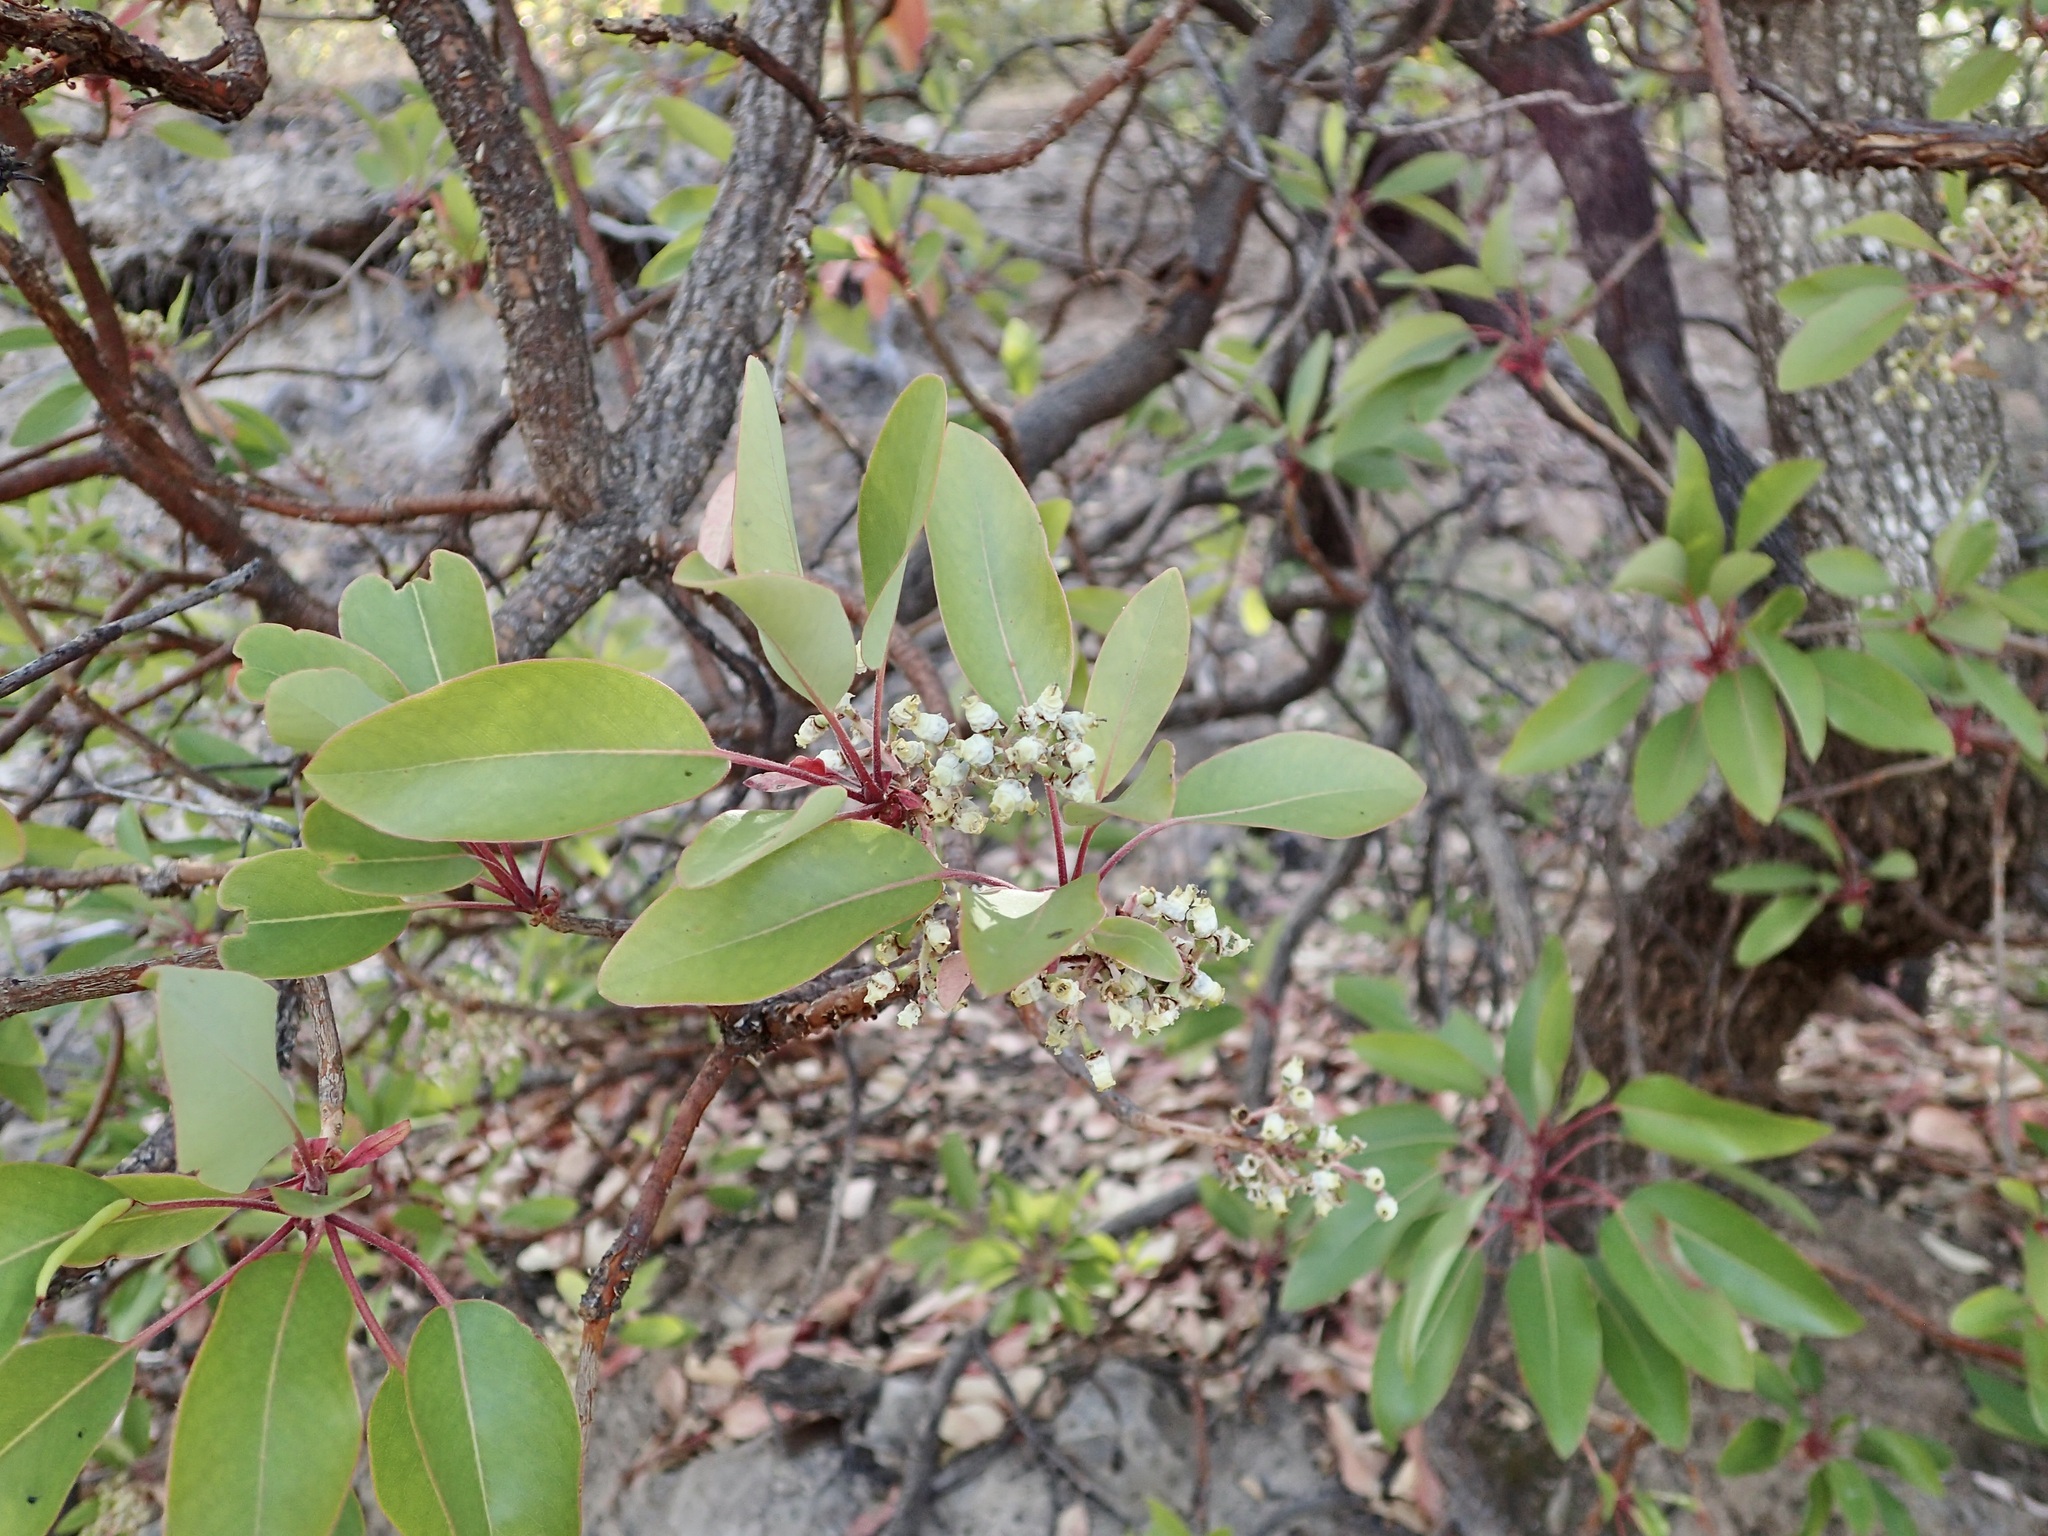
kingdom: Plantae
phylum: Tracheophyta
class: Magnoliopsida
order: Ericales
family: Ericaceae
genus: Arbutus
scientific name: Arbutus arizonica
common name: Arizona madrone
